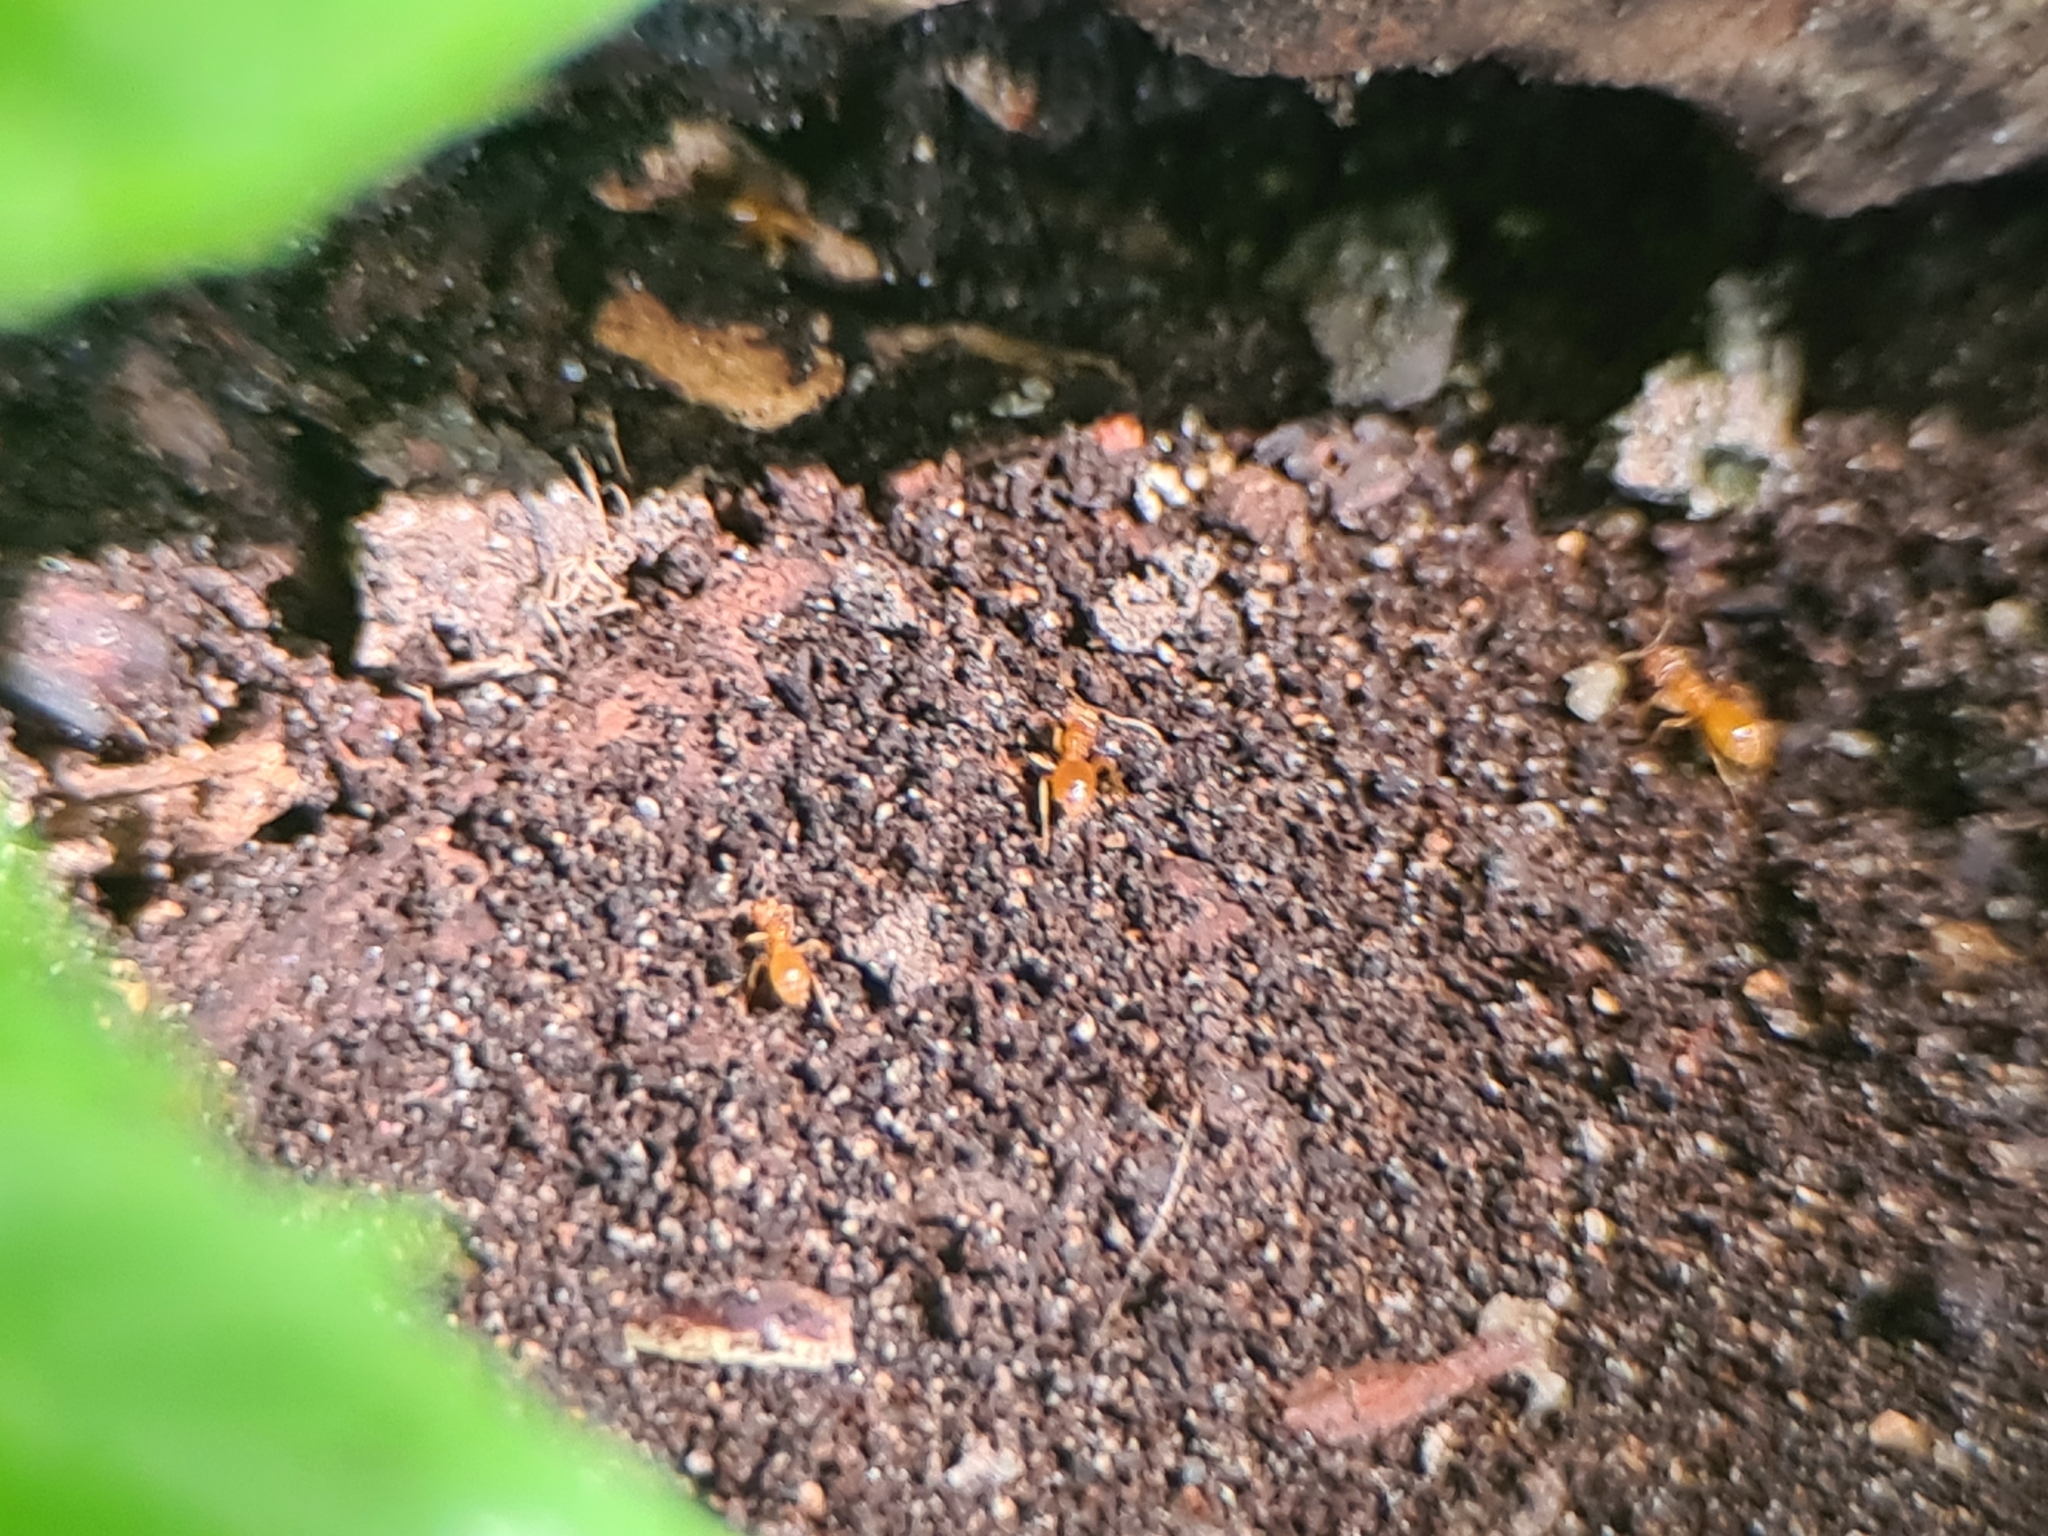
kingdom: Animalia
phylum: Arthropoda
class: Insecta
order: Hymenoptera
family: Formicidae
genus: Lasius
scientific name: Lasius flavus
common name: Blond field ant
